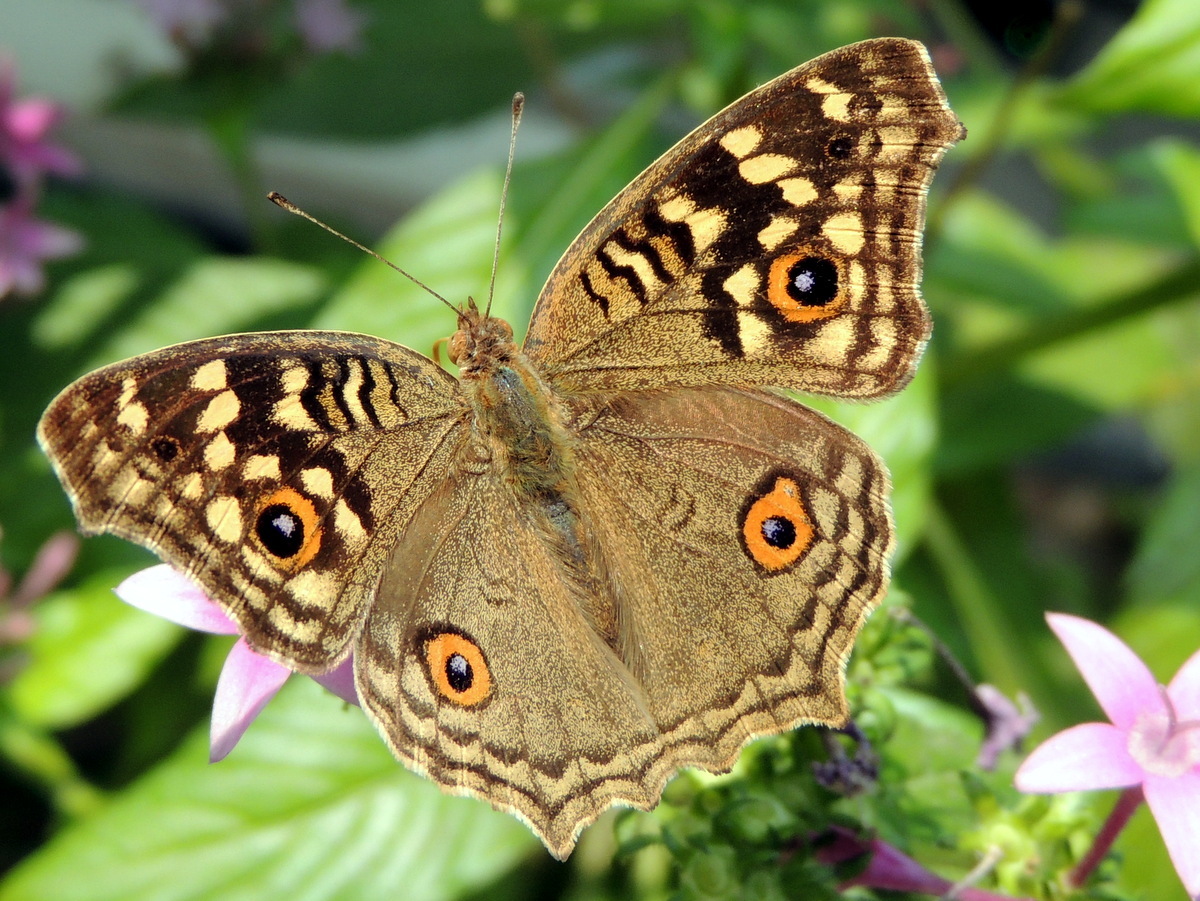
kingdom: Animalia
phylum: Arthropoda
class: Insecta
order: Lepidoptera
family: Nymphalidae
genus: Junonia
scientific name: Junonia lemonias
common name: Lemon pansy
